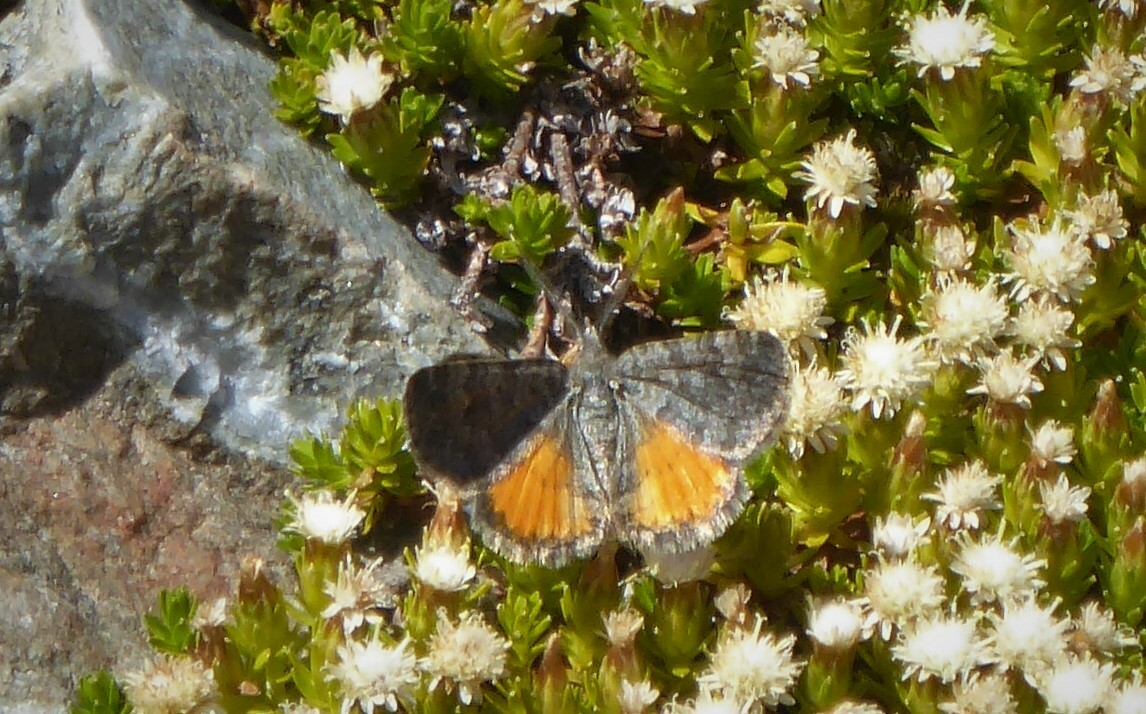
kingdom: Animalia
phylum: Arthropoda
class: Insecta
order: Lepidoptera
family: Geometridae
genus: Paranotoreas
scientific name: Paranotoreas brephosata
